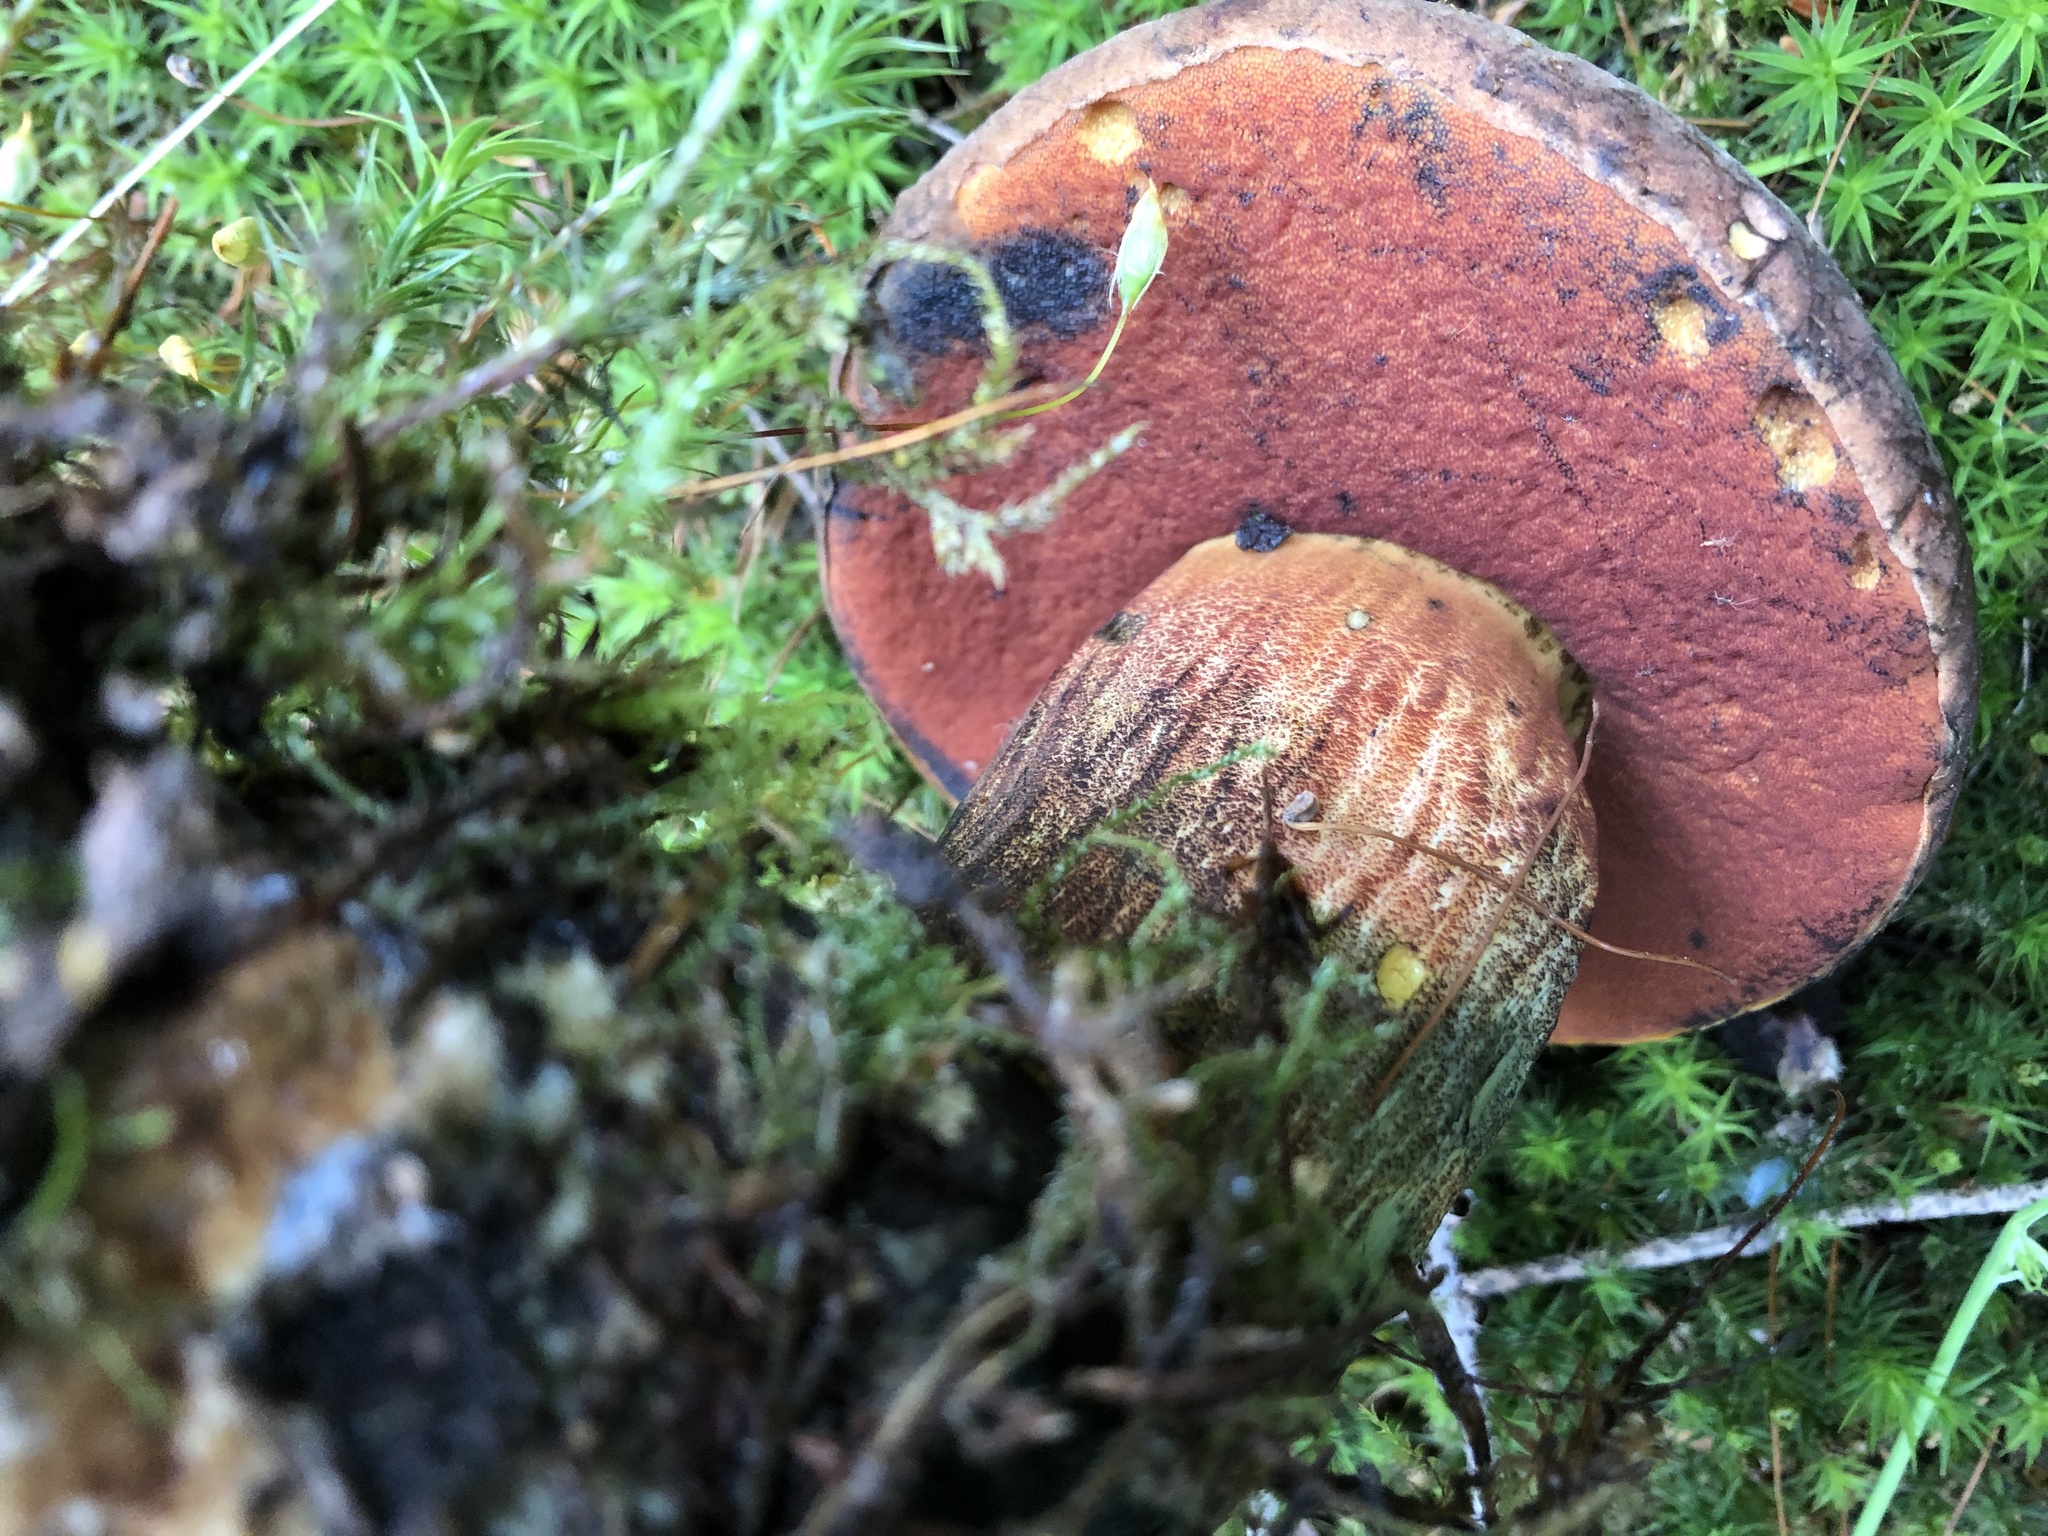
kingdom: Fungi
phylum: Basidiomycota
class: Agaricomycetes
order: Boletales
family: Boletaceae
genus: Neoboletus
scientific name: Neoboletus luridiformis
